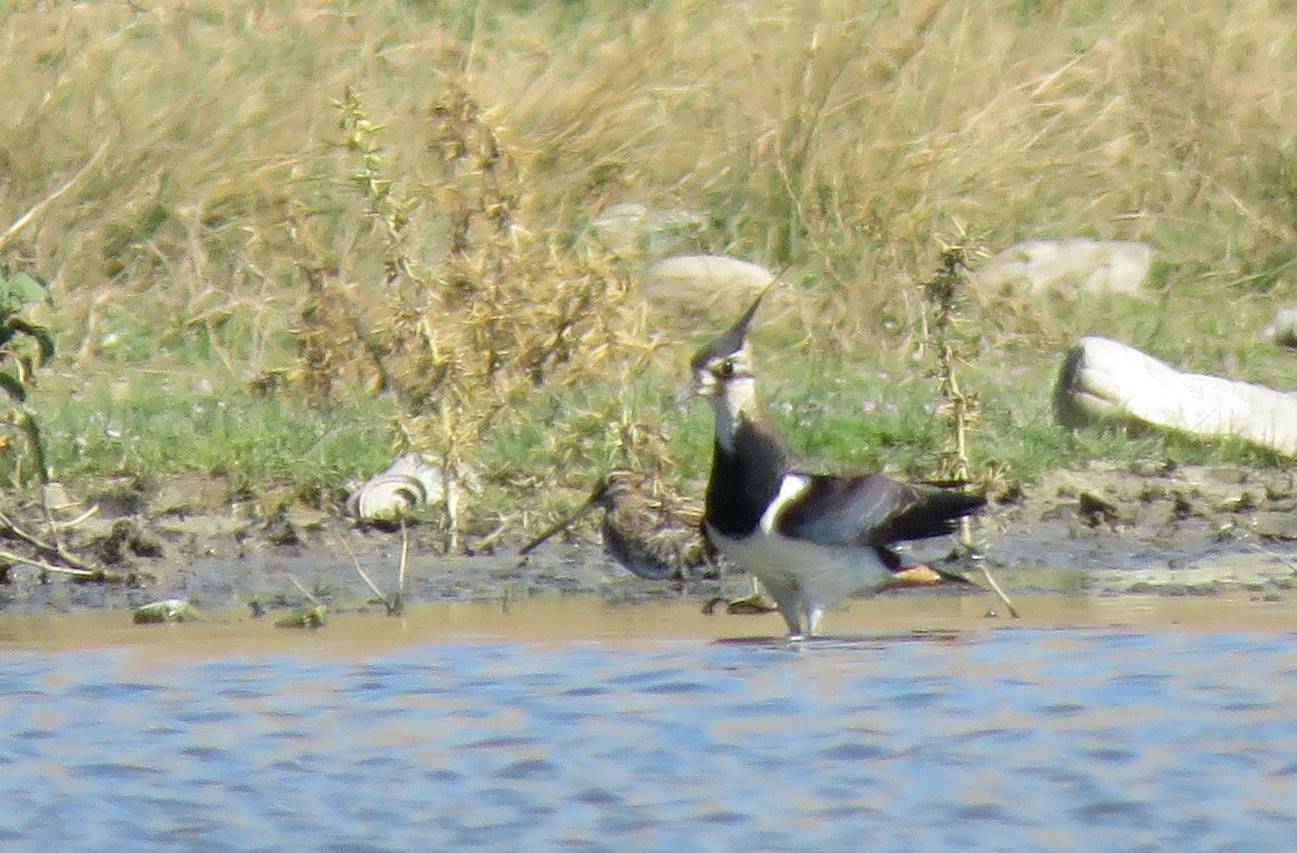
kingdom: Animalia
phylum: Chordata
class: Aves
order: Charadriiformes
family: Charadriidae
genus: Vanellus
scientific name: Vanellus vanellus
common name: Northern lapwing
